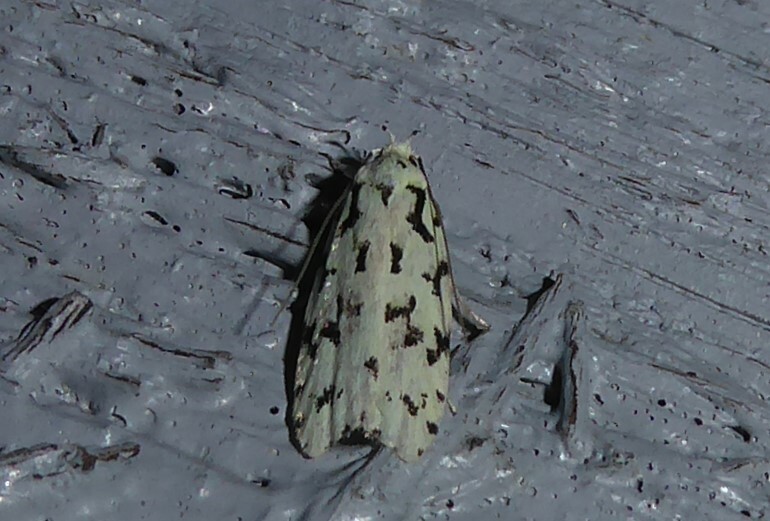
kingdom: Animalia
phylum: Arthropoda
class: Insecta
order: Lepidoptera
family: Oecophoridae
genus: Izatha
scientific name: Izatha huttoni
